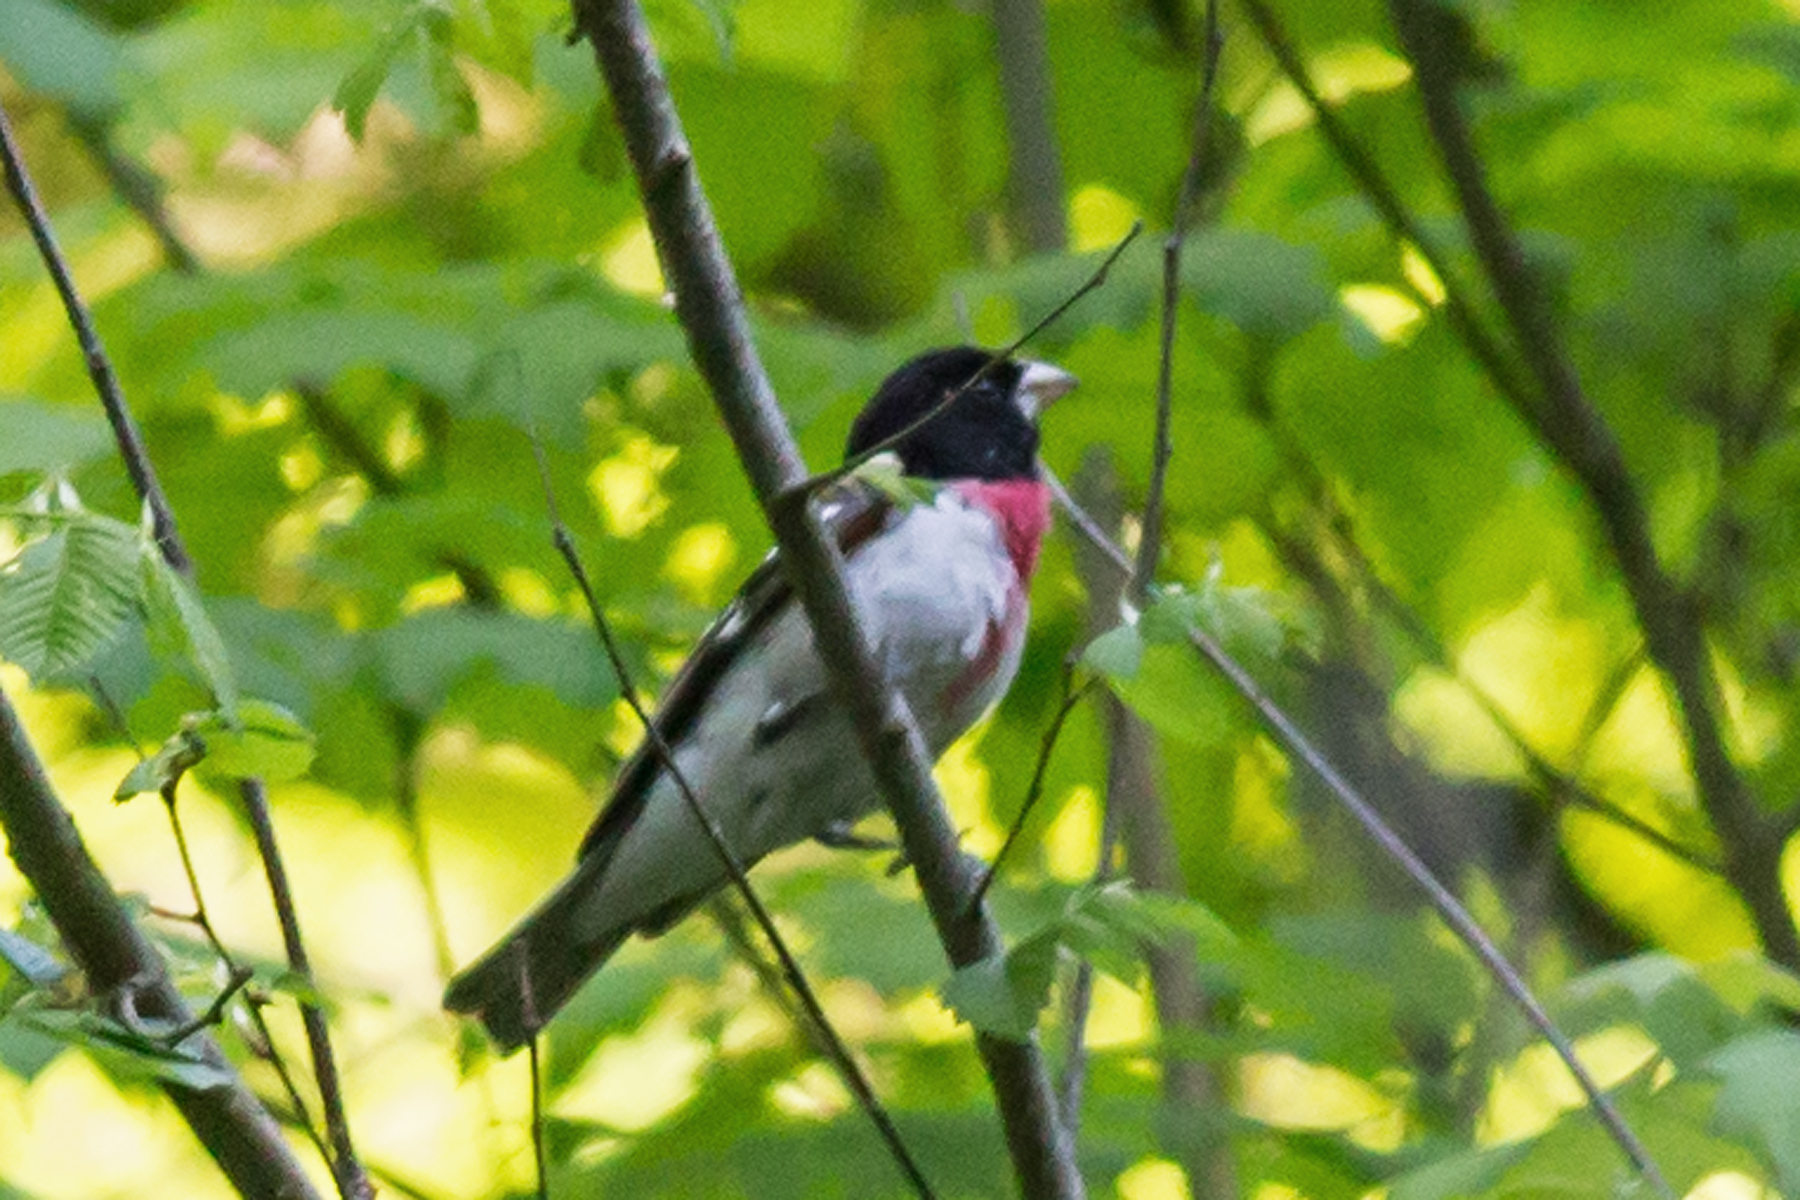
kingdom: Animalia
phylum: Chordata
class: Aves
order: Passeriformes
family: Cardinalidae
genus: Pheucticus
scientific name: Pheucticus ludovicianus
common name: Rose-breasted grosbeak
